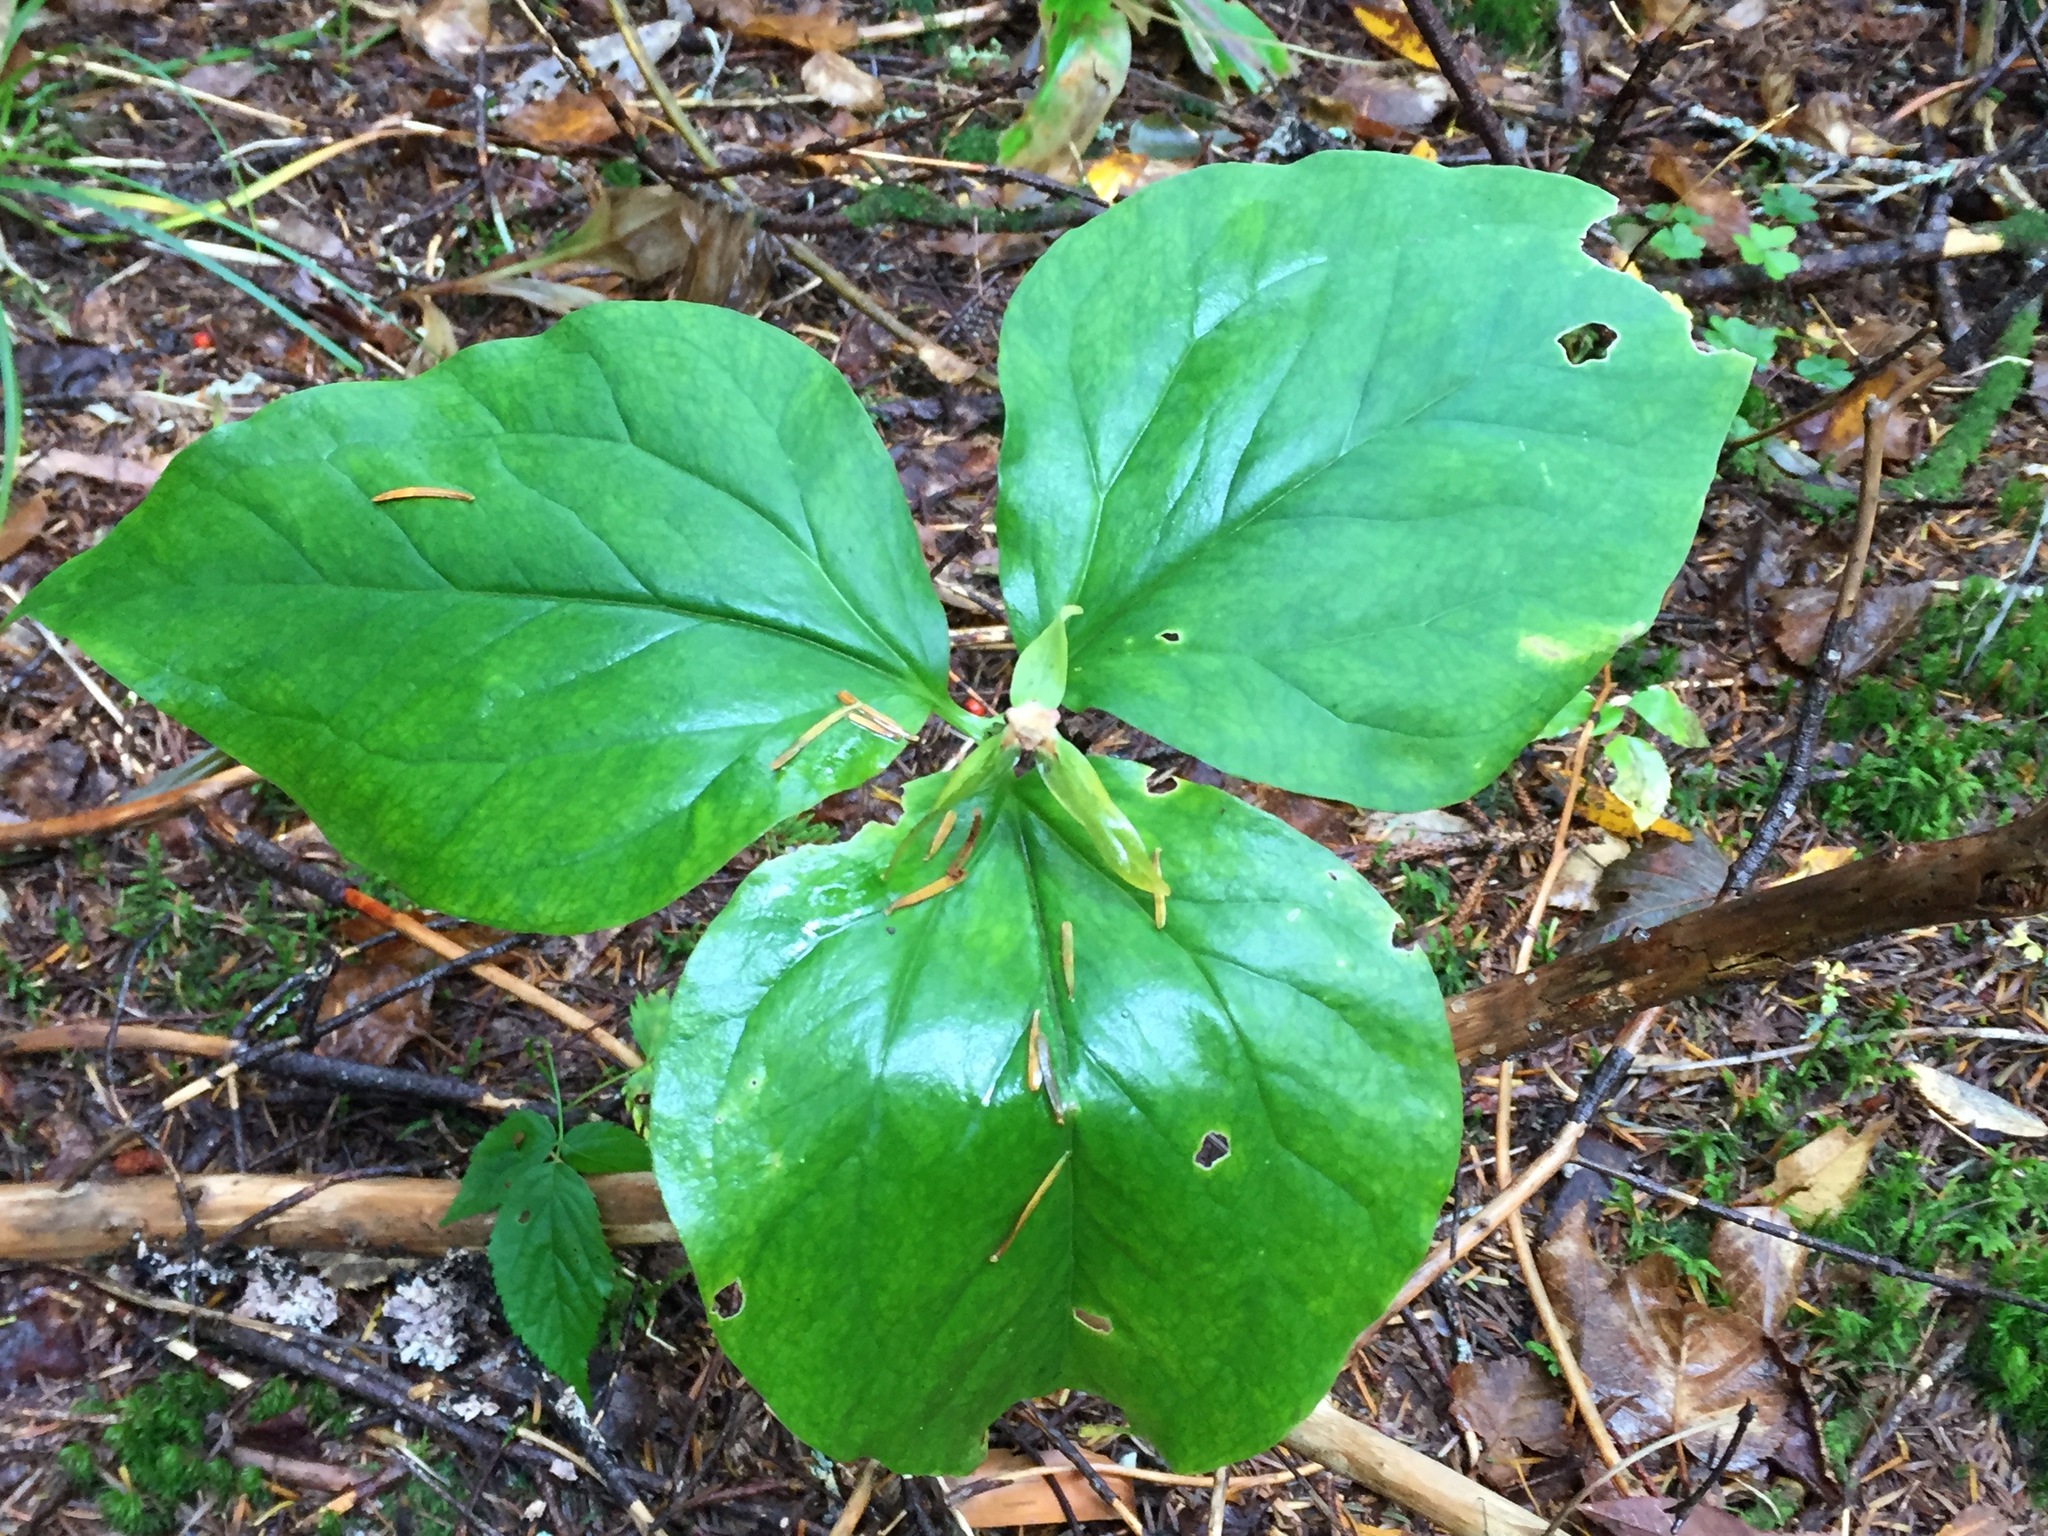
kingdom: Plantae
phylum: Tracheophyta
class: Liliopsida
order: Liliales
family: Melanthiaceae
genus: Trillium
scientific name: Trillium undulatum
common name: Paint trillium
